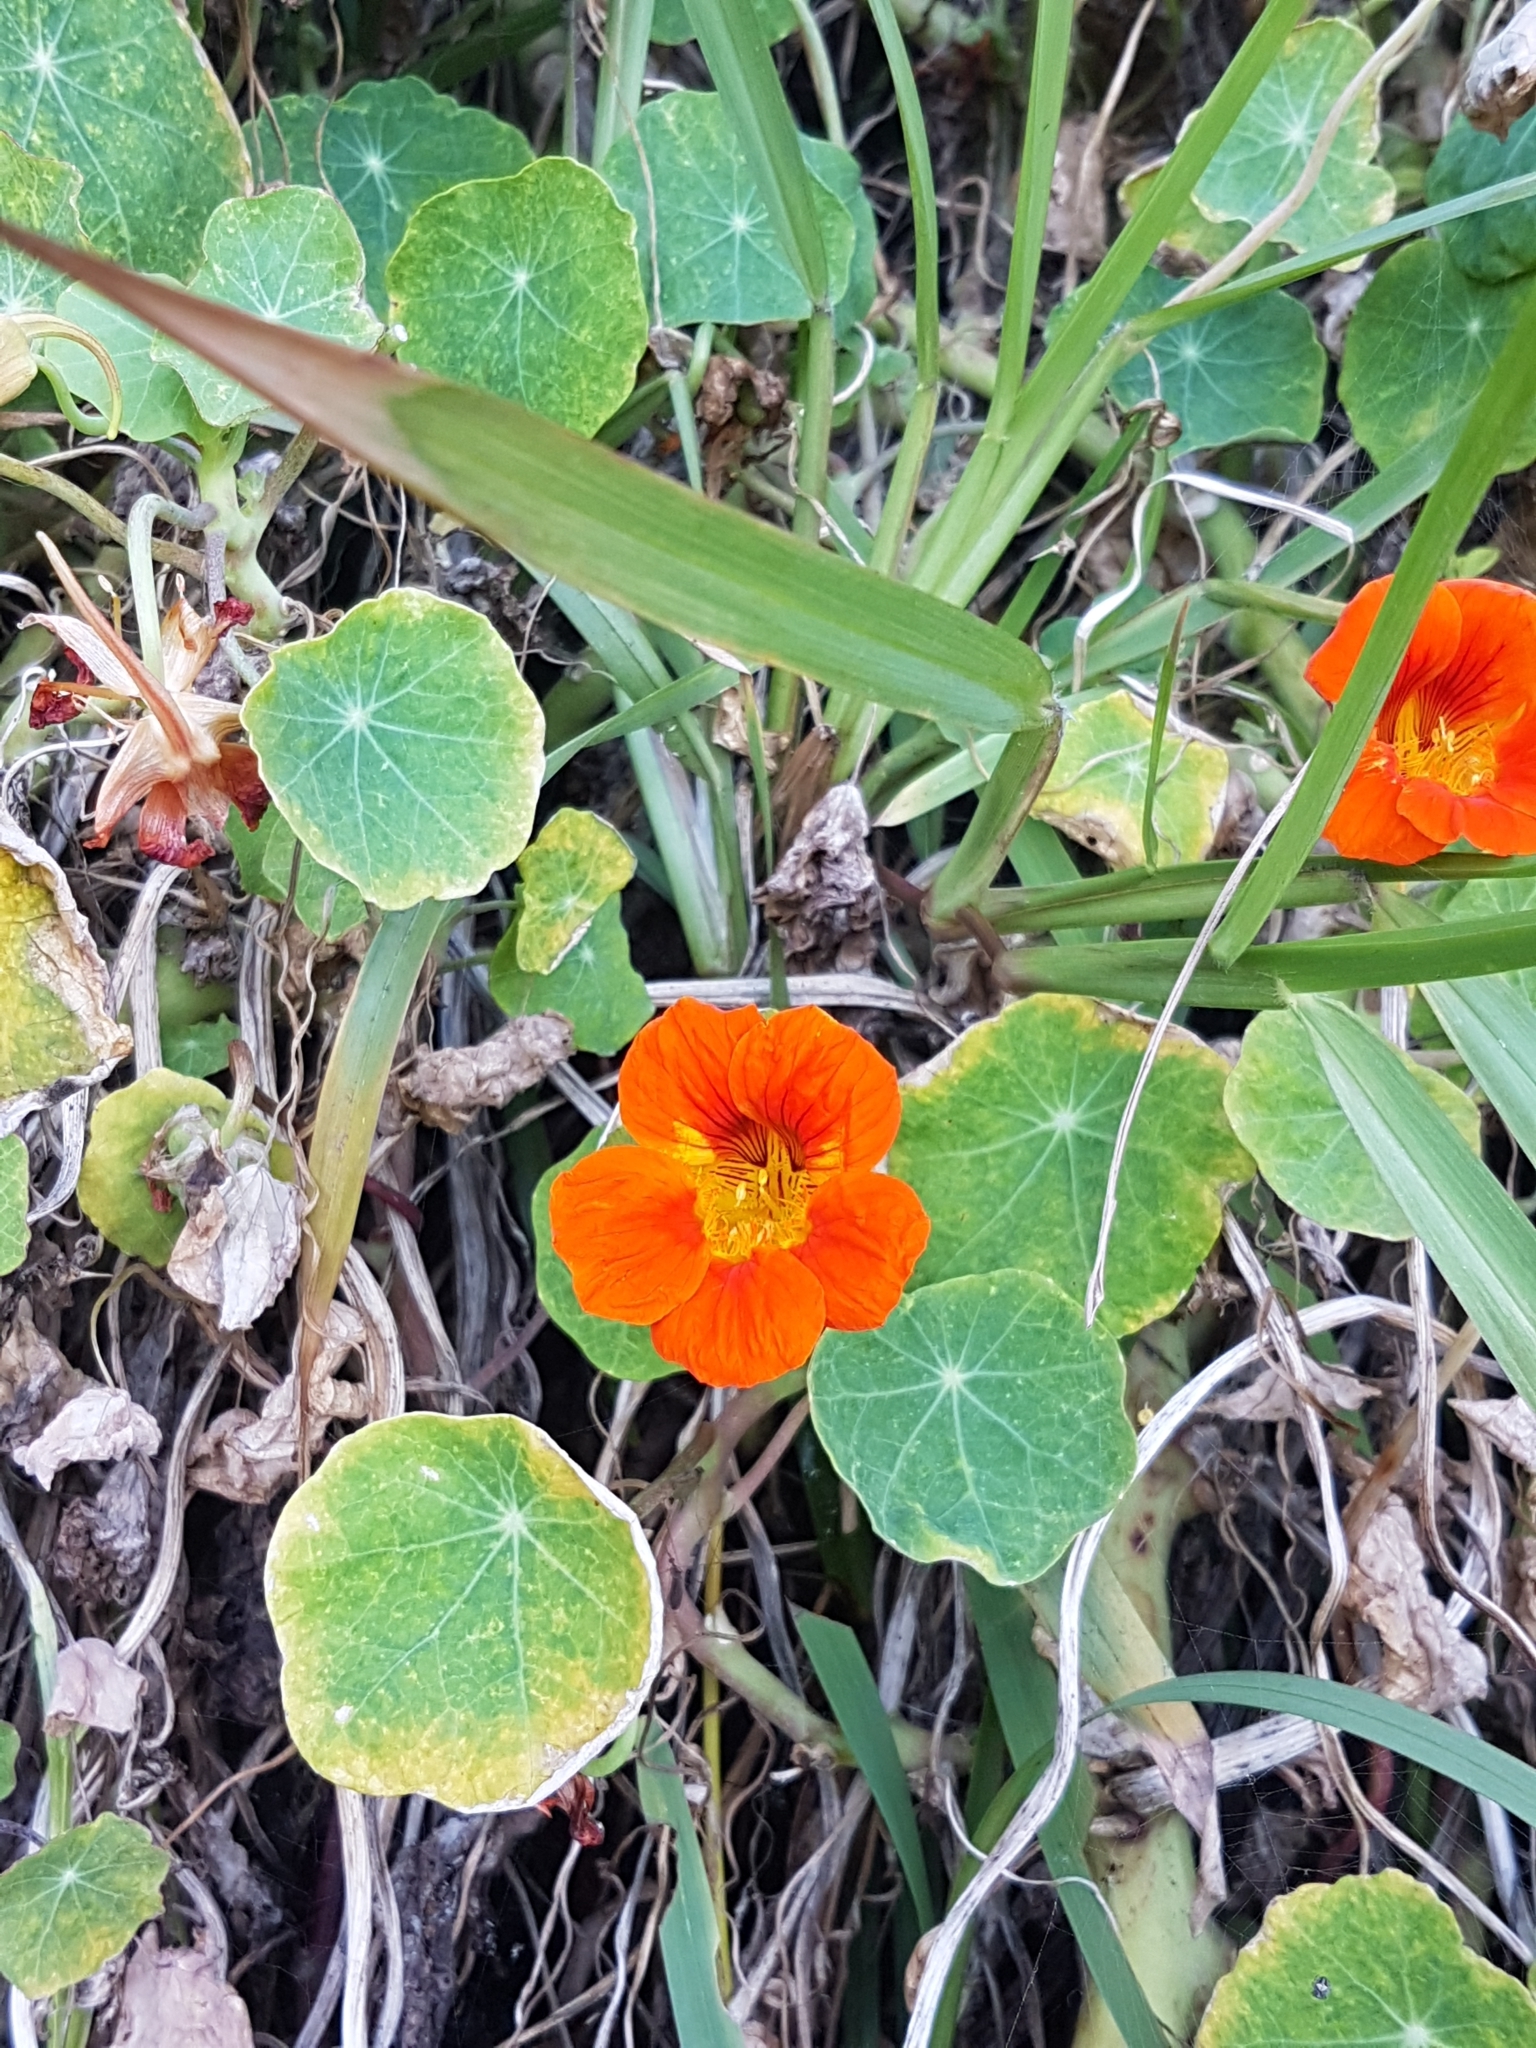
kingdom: Plantae
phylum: Tracheophyta
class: Magnoliopsida
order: Brassicales
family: Tropaeolaceae
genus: Tropaeolum
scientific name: Tropaeolum majus
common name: Nasturtium
